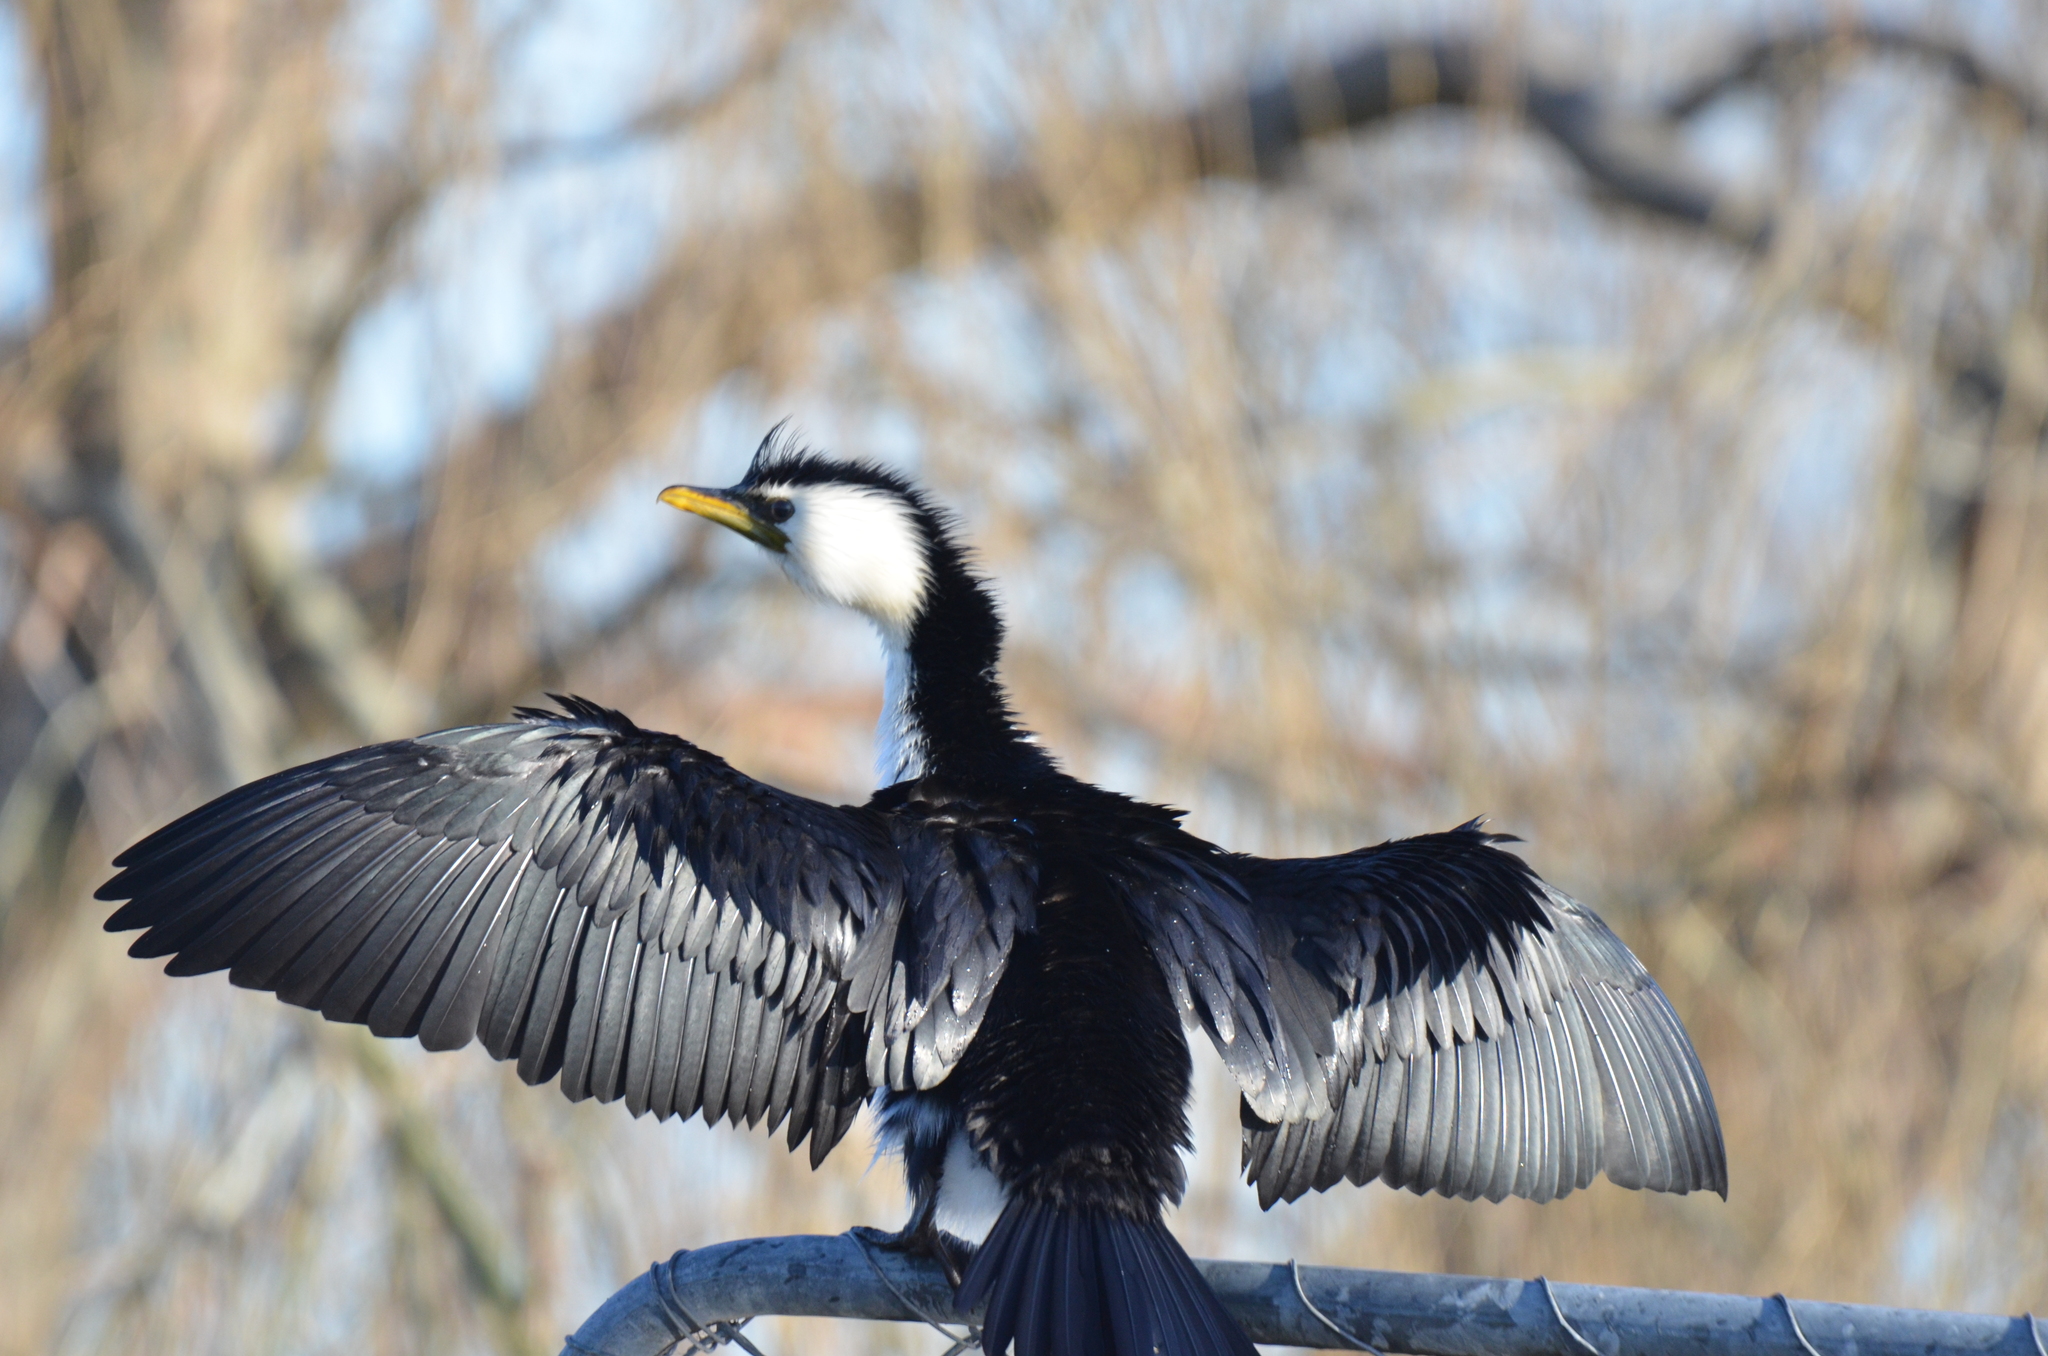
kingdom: Animalia
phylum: Chordata
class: Aves
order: Suliformes
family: Phalacrocoracidae
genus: Microcarbo
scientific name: Microcarbo melanoleucos
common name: Little pied cormorant
